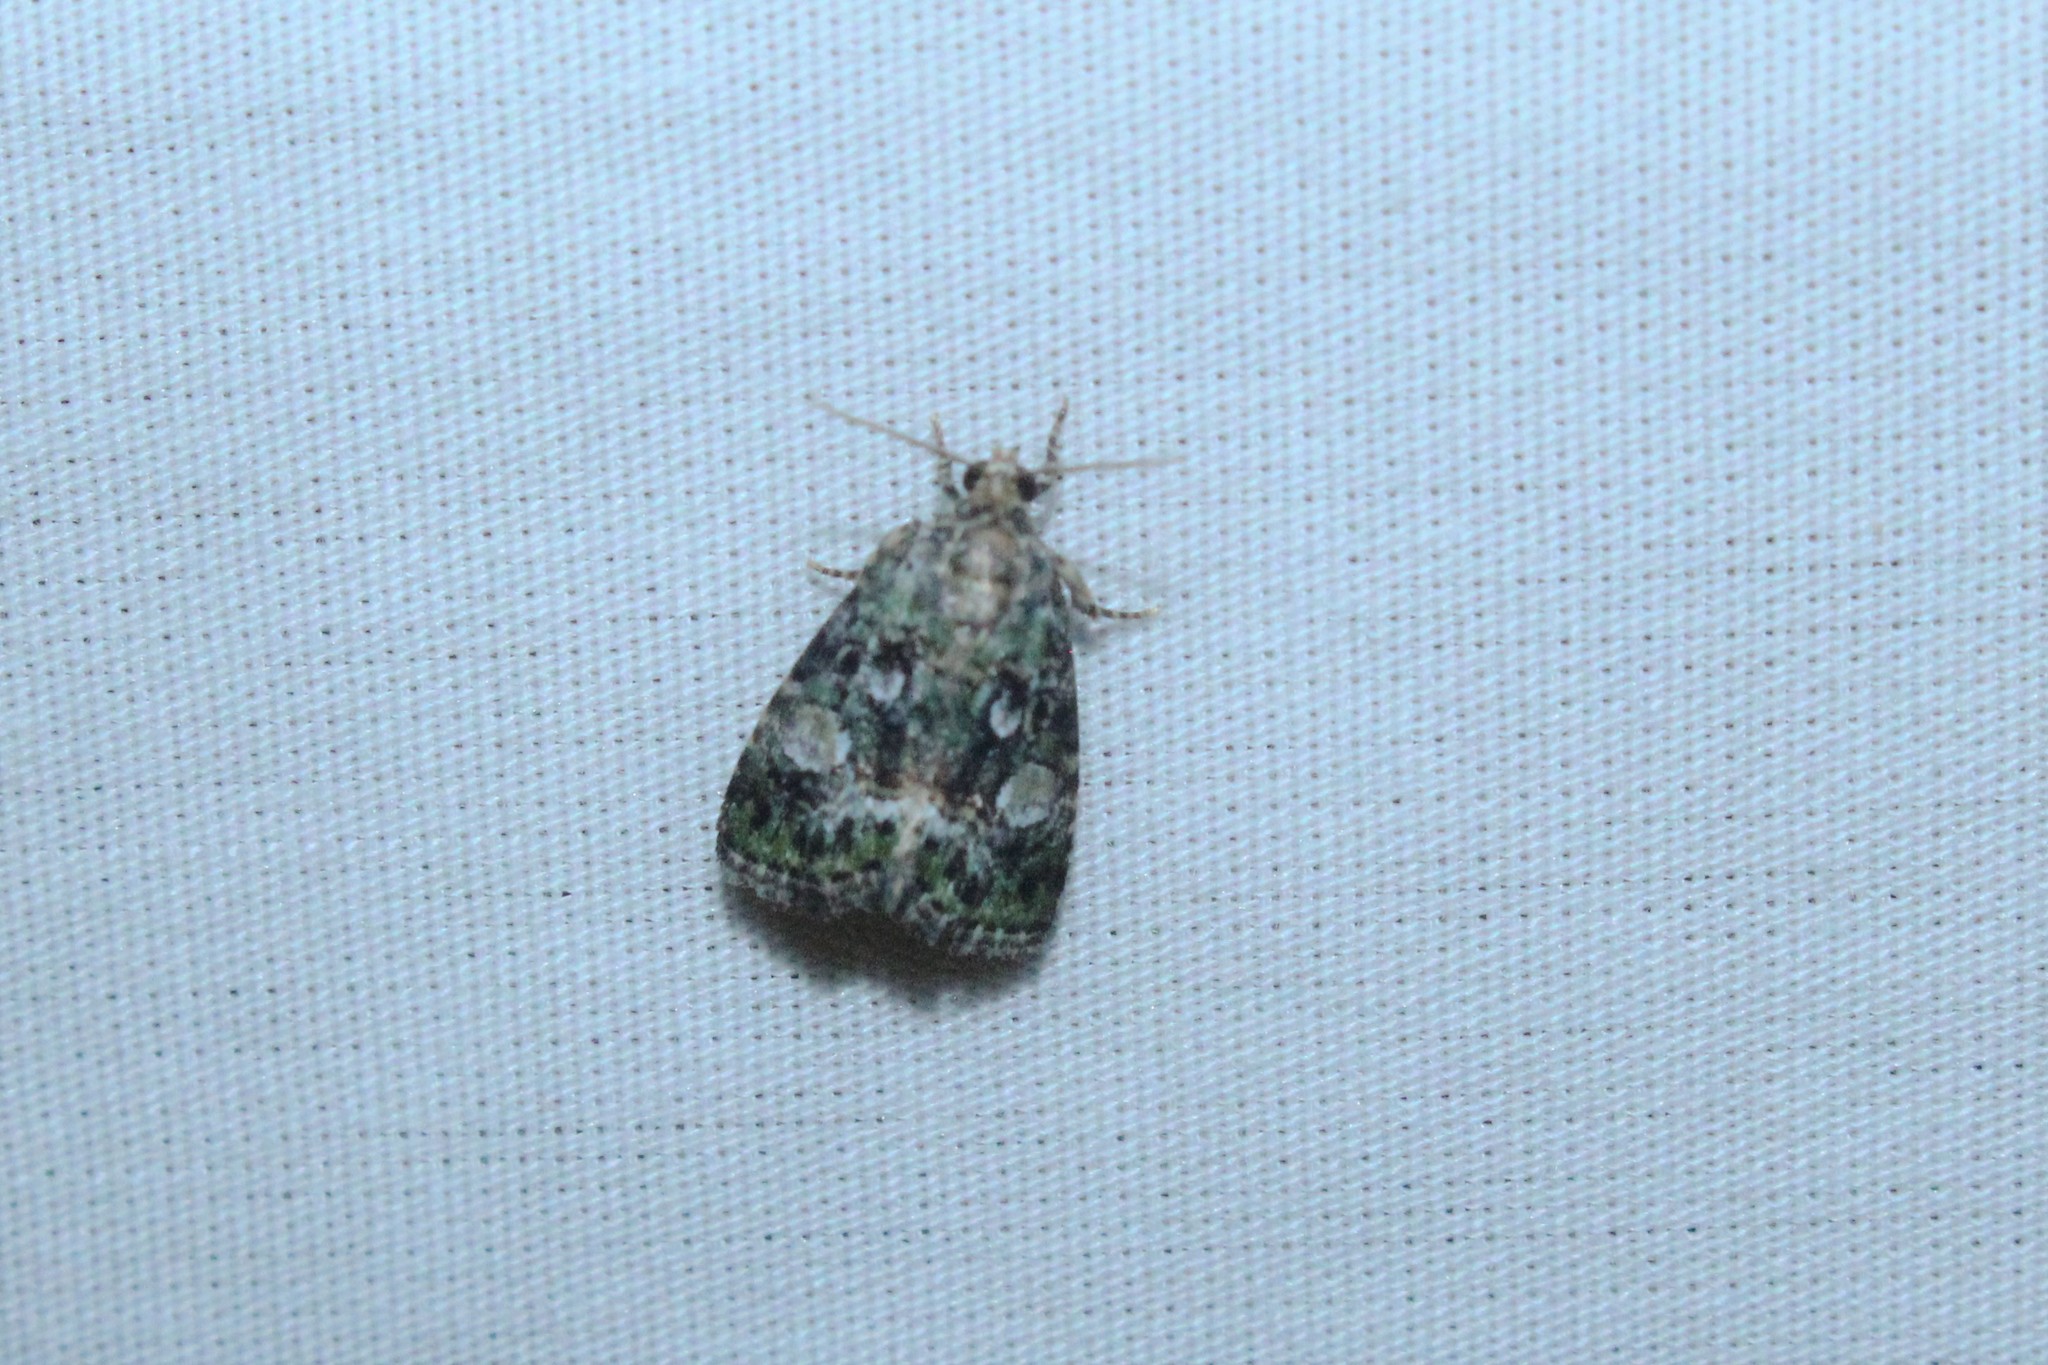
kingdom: Animalia
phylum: Arthropoda
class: Insecta
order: Lepidoptera
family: Noctuidae
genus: Lithacodia
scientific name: Lithacodia musta
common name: Small mossy glyph
